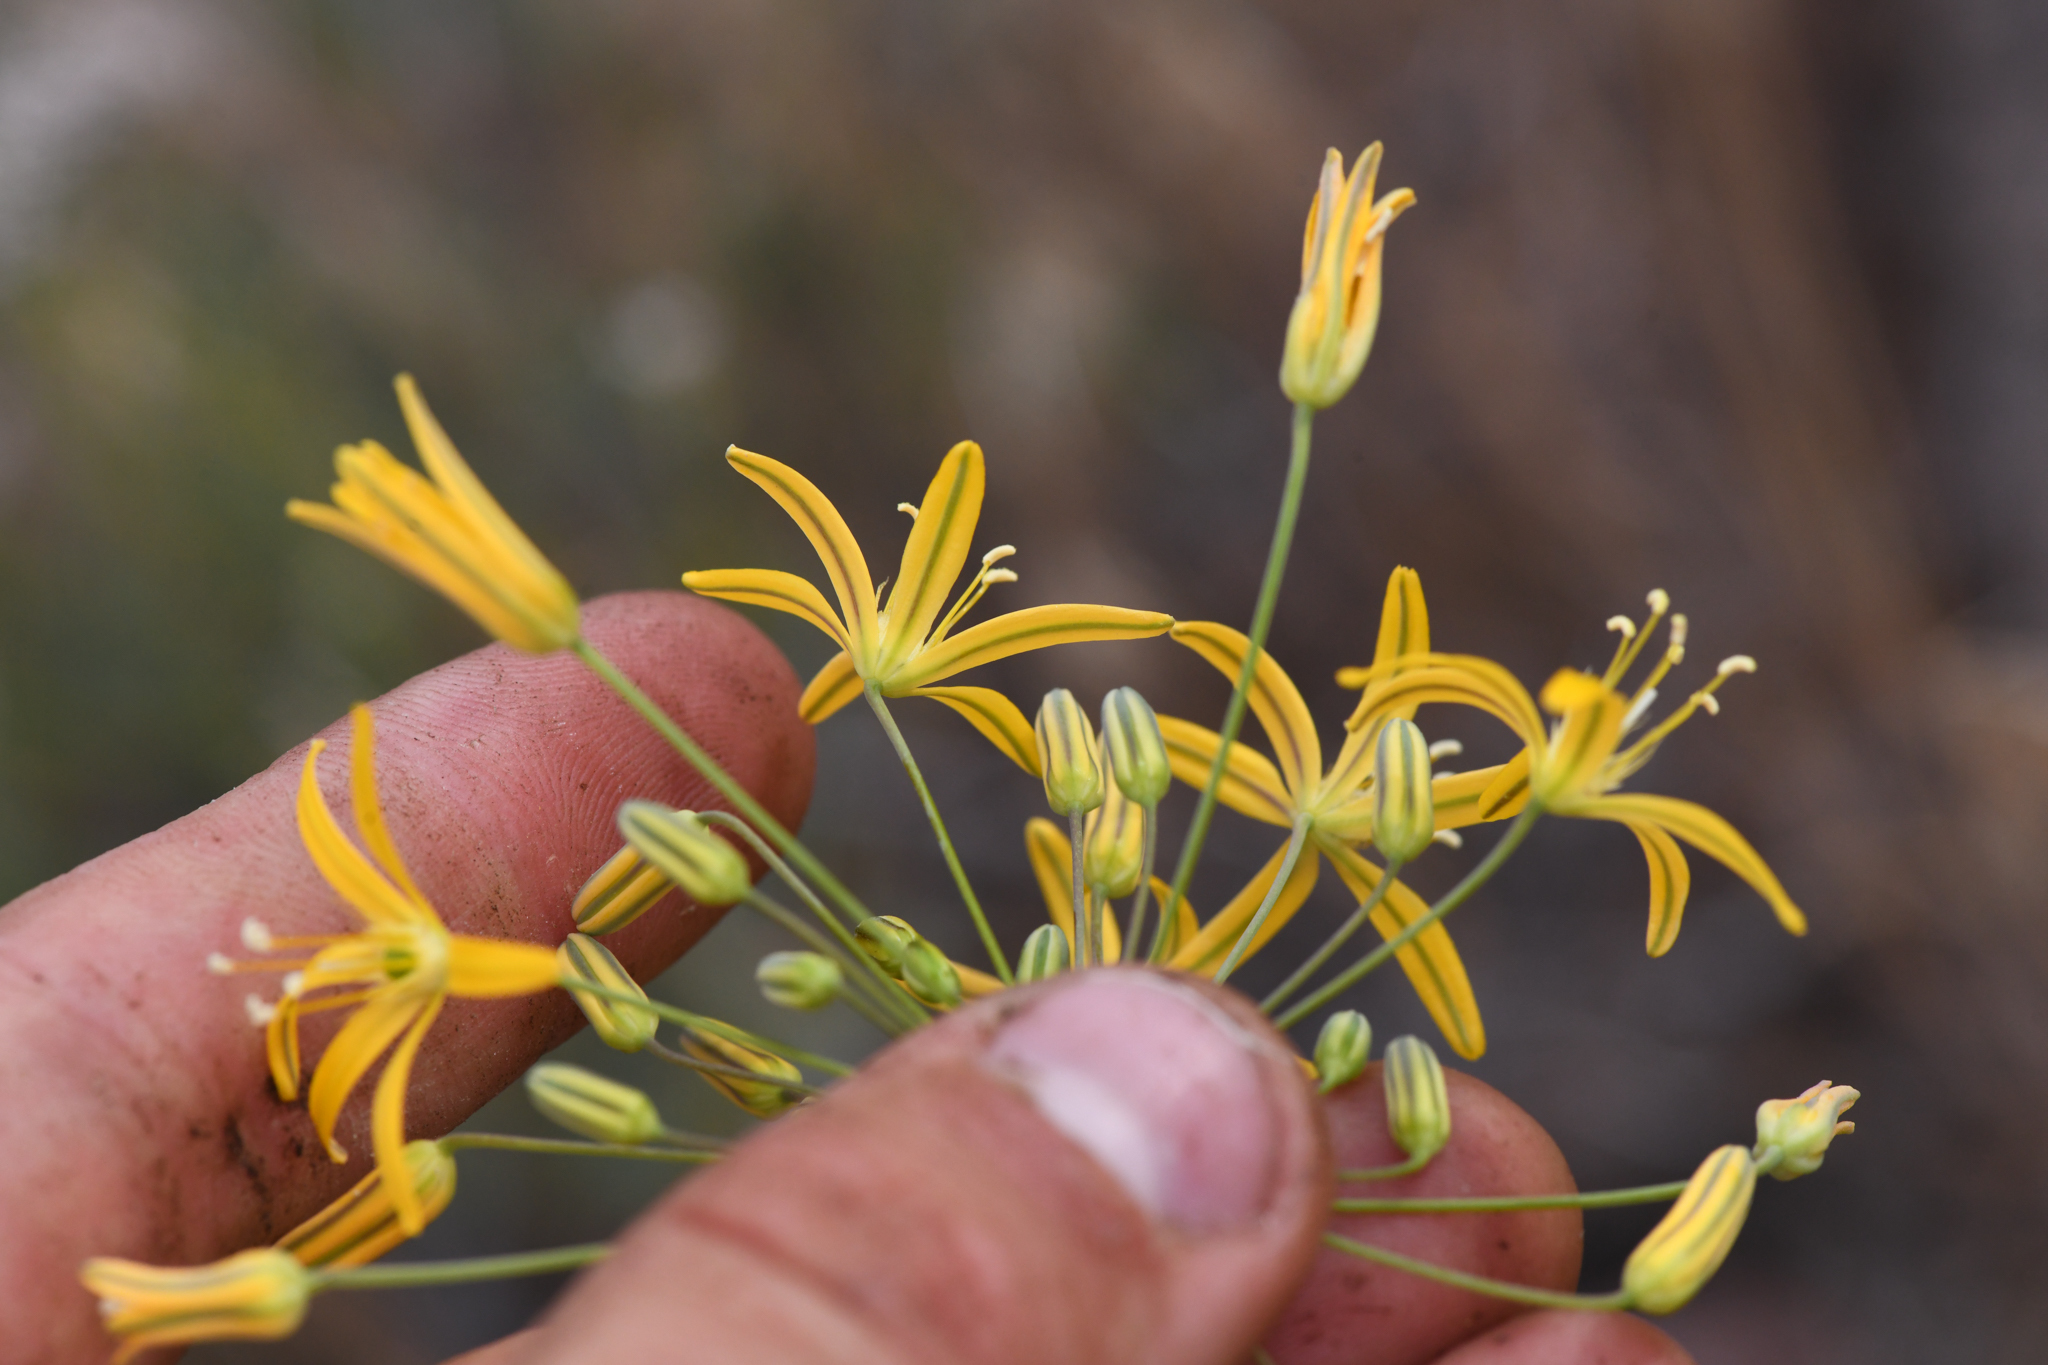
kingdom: Plantae
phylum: Tracheophyta
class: Liliopsida
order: Asparagales
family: Asparagaceae
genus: Bloomeria
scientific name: Bloomeria crocea
